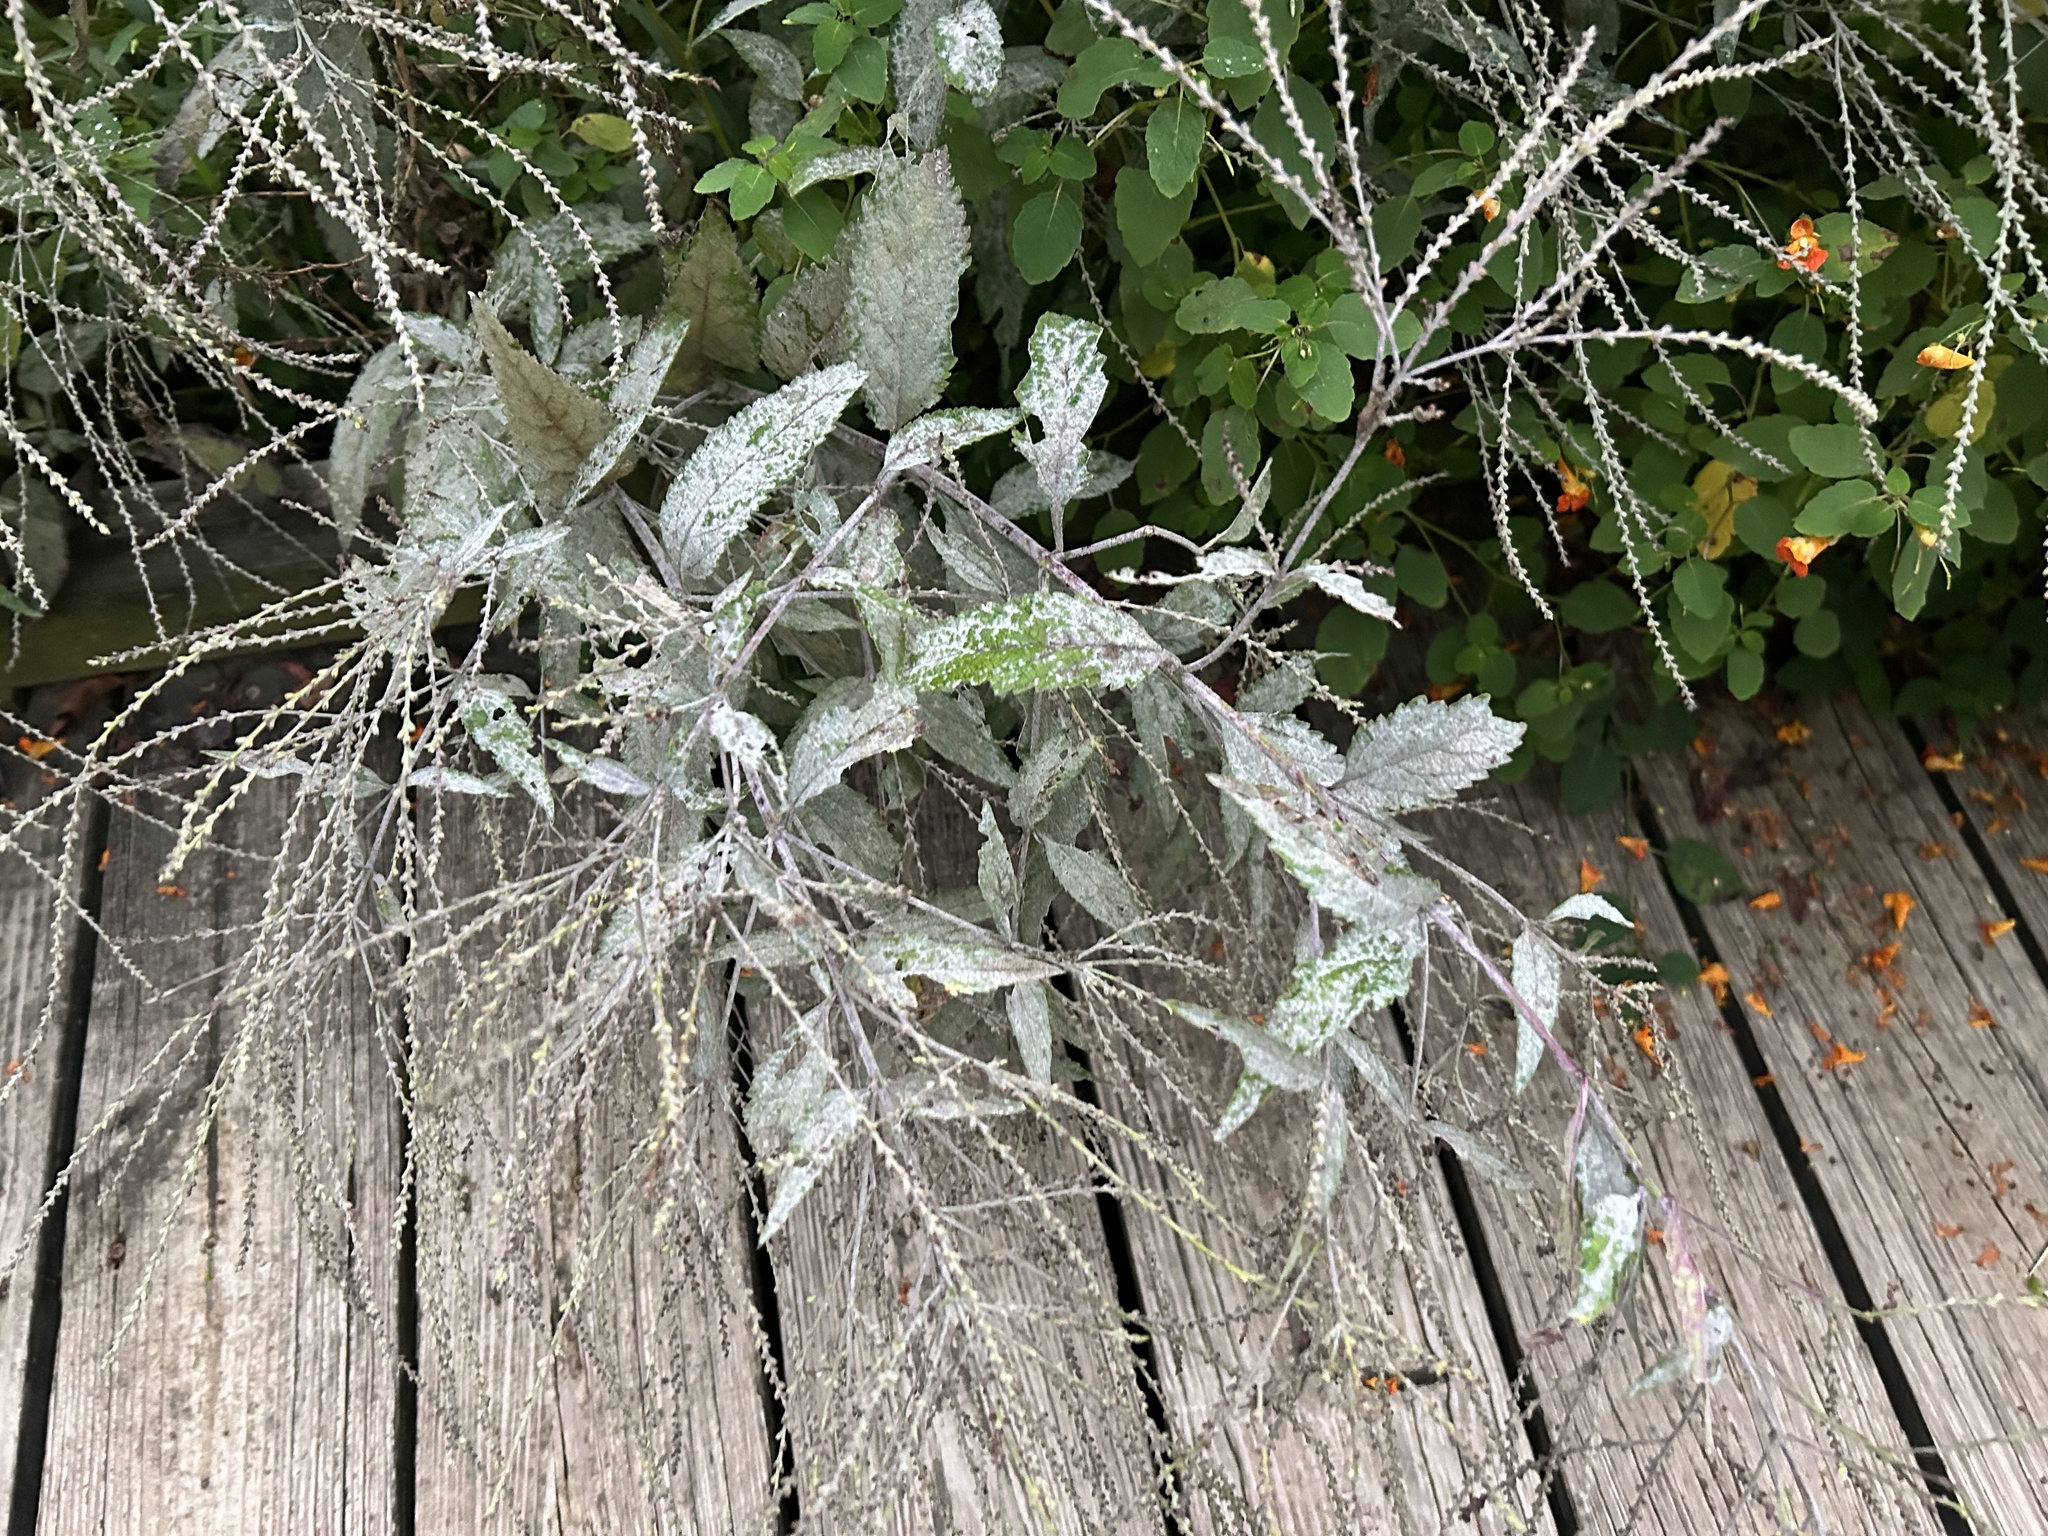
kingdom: Plantae
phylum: Tracheophyta
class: Magnoliopsida
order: Lamiales
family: Verbenaceae
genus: Verbena
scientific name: Verbena urticifolia
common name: Nettle-leaved vervain
